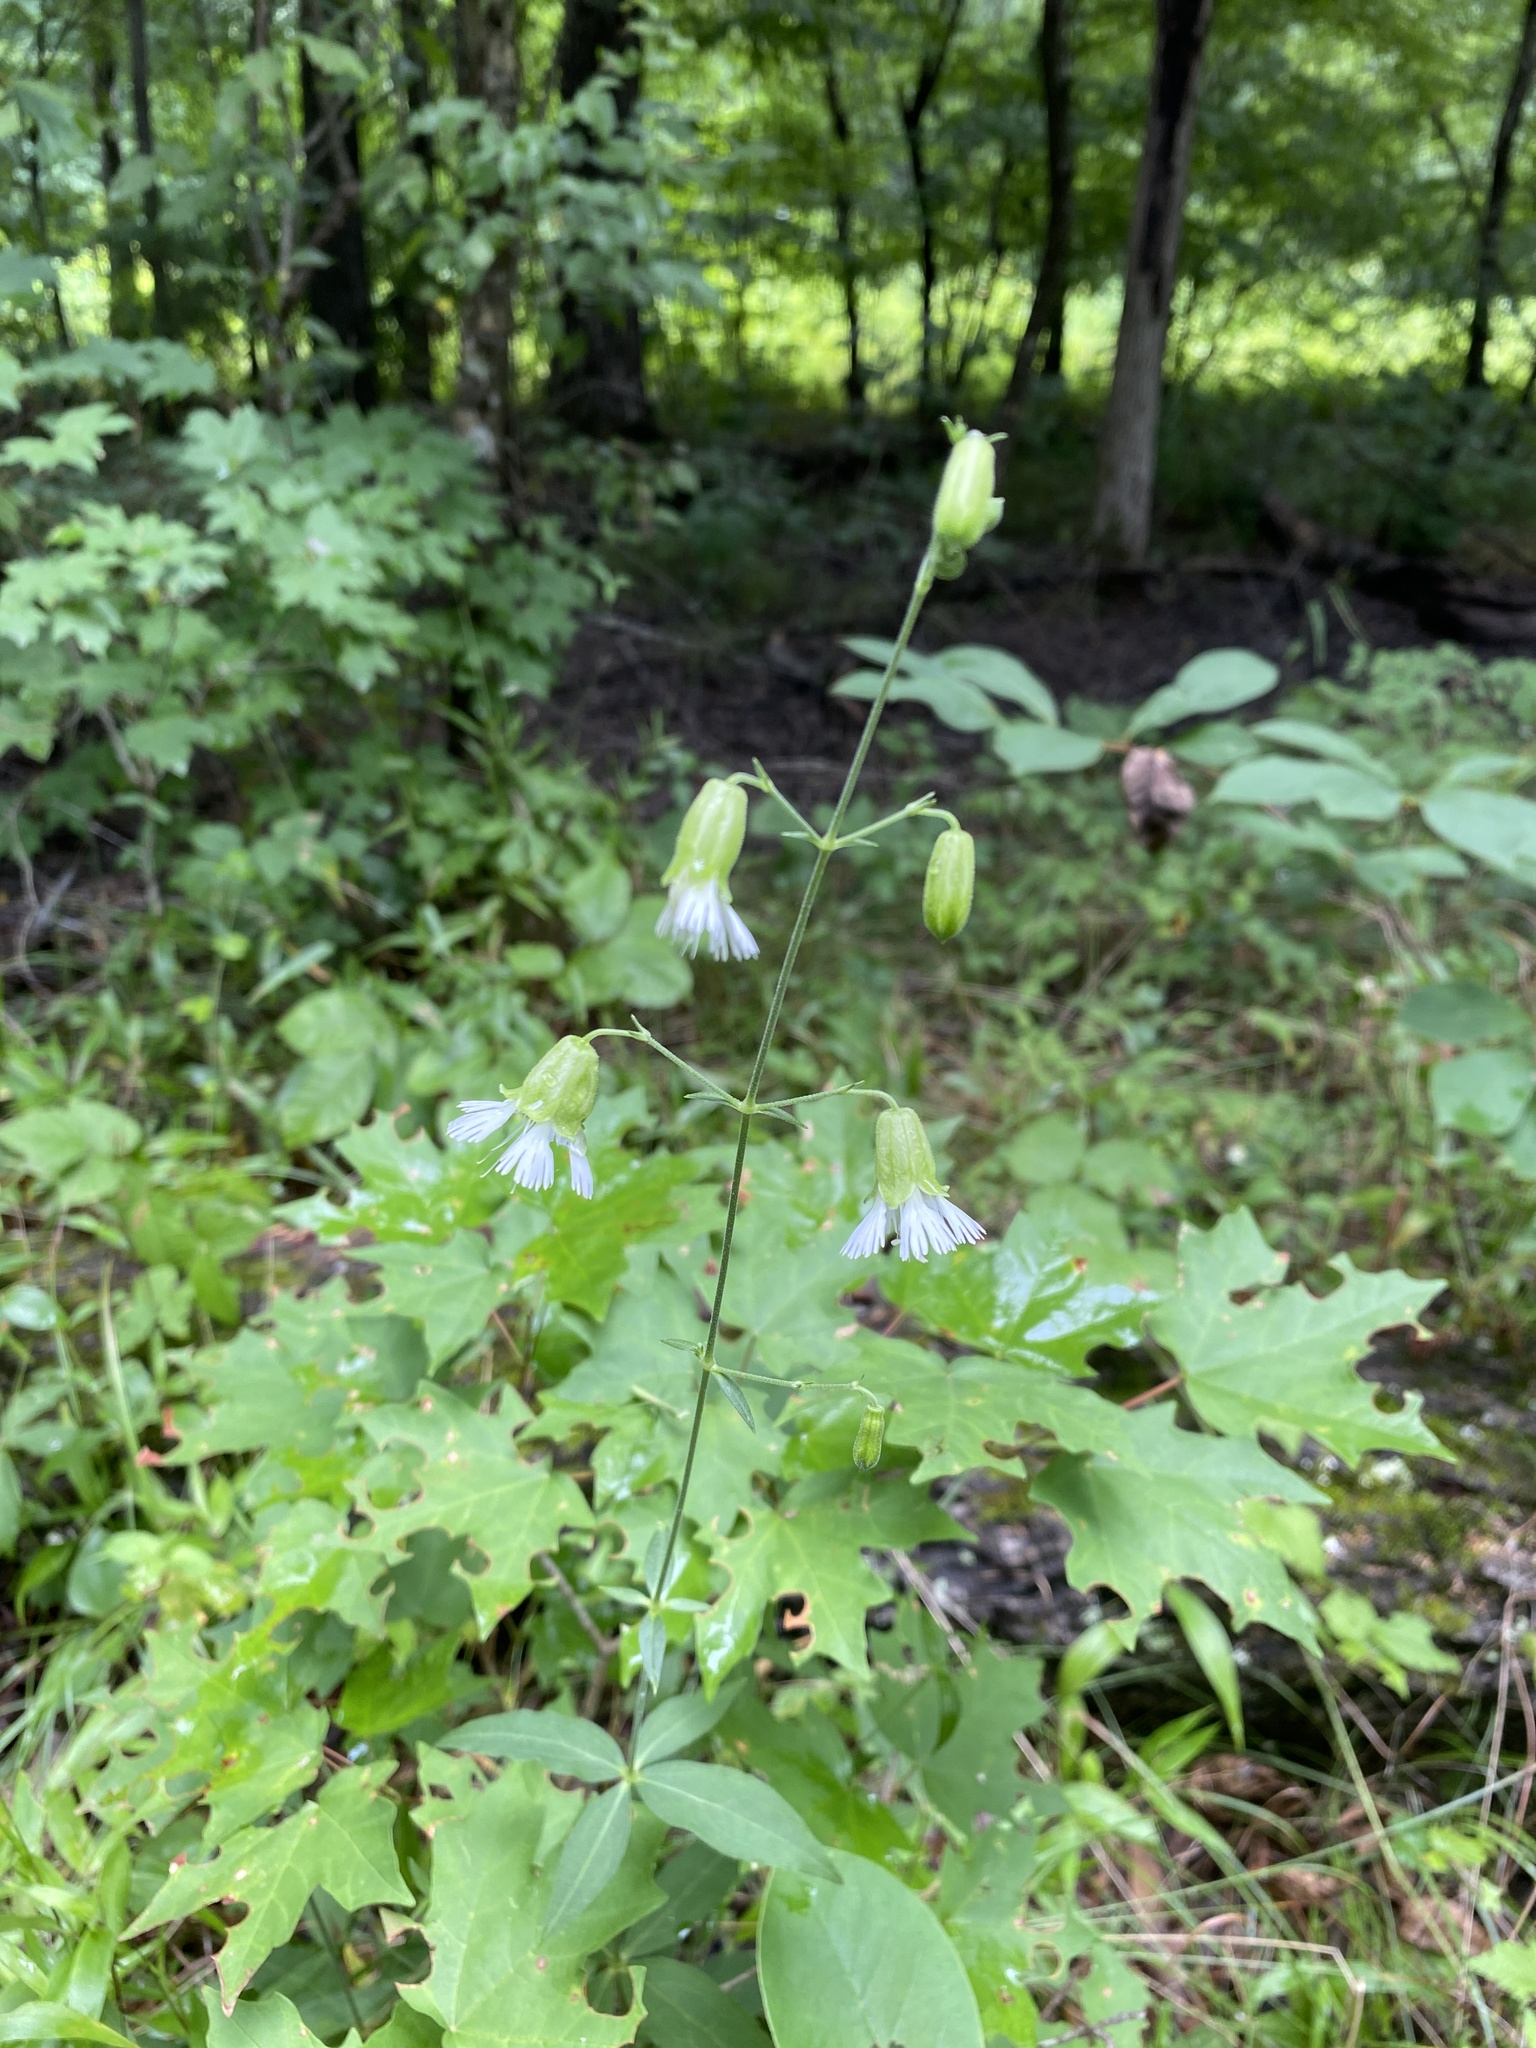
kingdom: Plantae
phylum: Tracheophyta
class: Magnoliopsida
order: Caryophyllales
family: Caryophyllaceae
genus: Silene
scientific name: Silene stellata
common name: Starry campion
